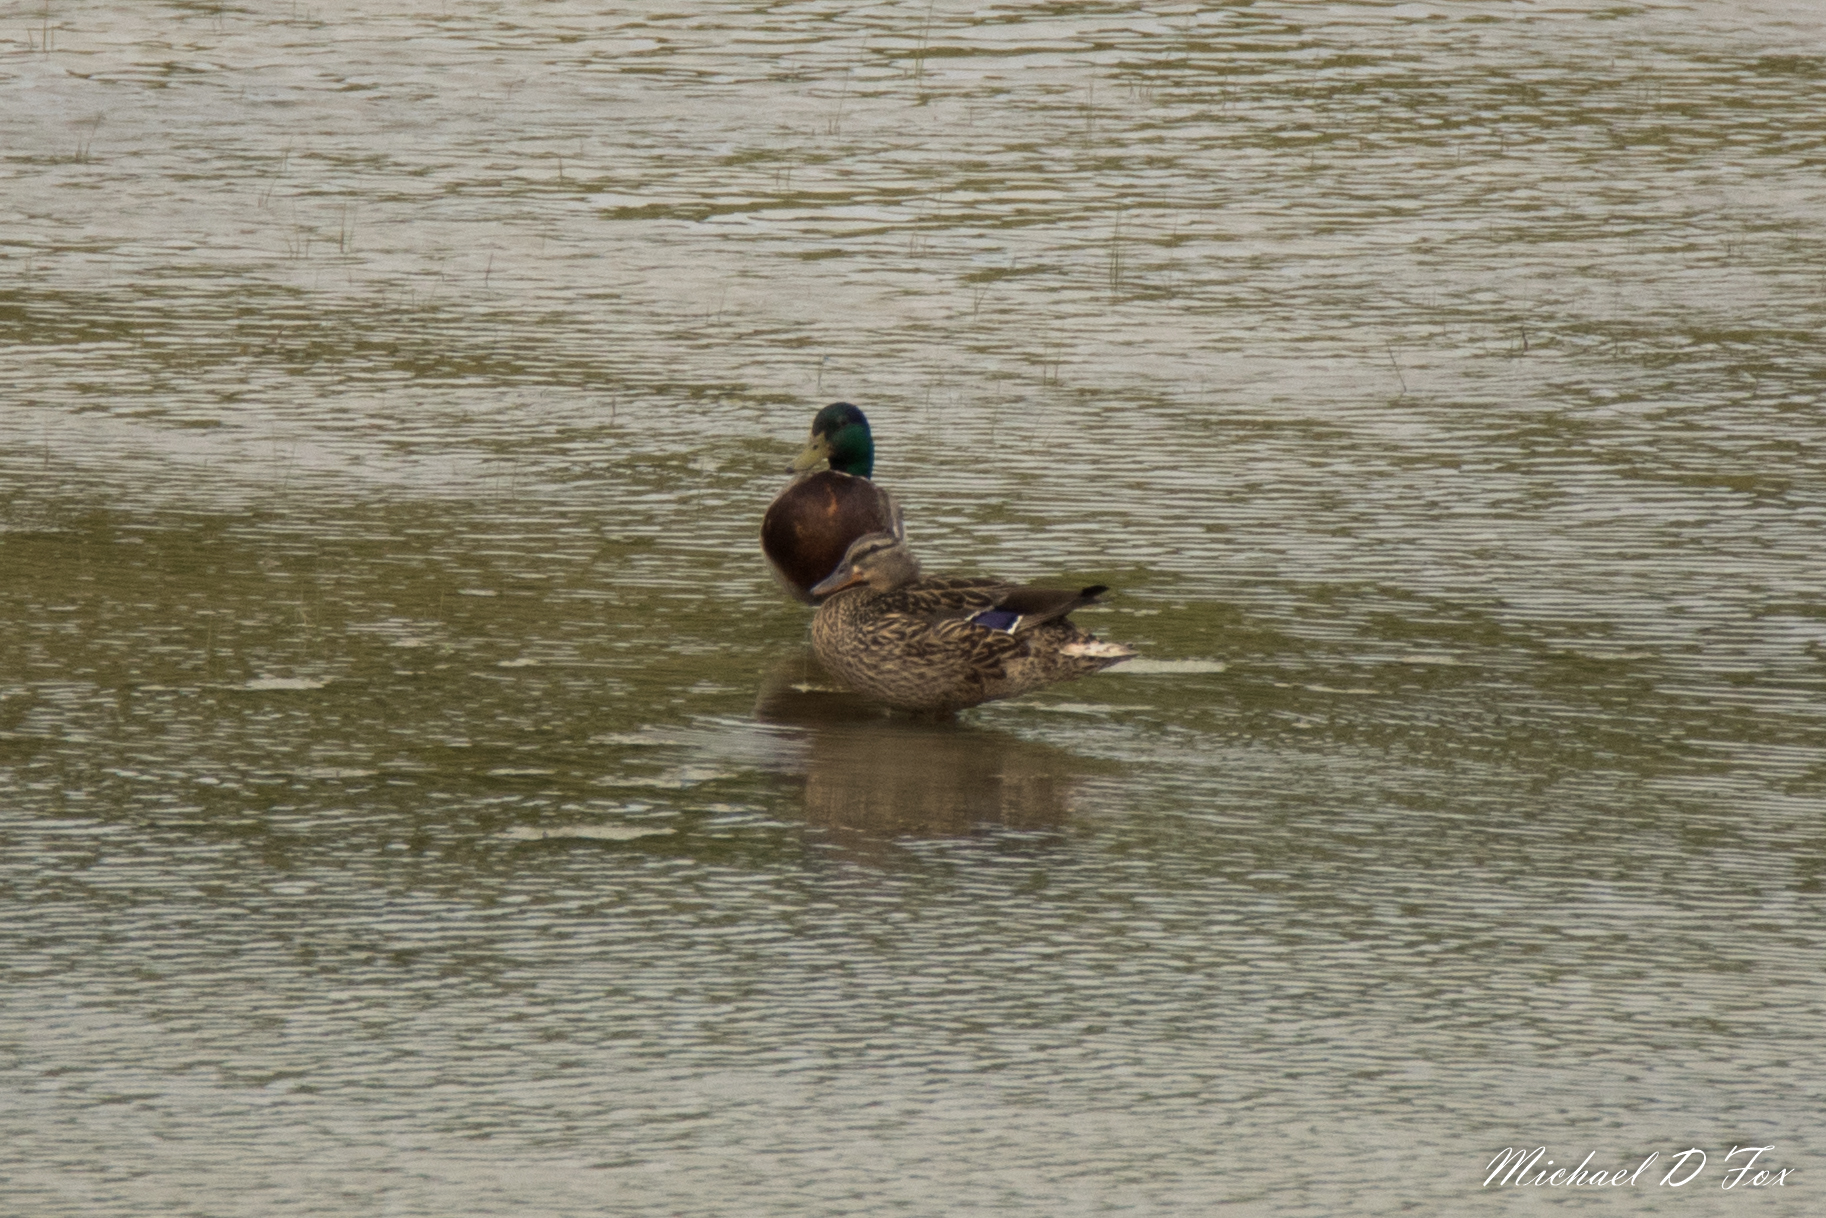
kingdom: Animalia
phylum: Chordata
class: Aves
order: Anseriformes
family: Anatidae
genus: Anas
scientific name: Anas platyrhynchos
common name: Mallard
